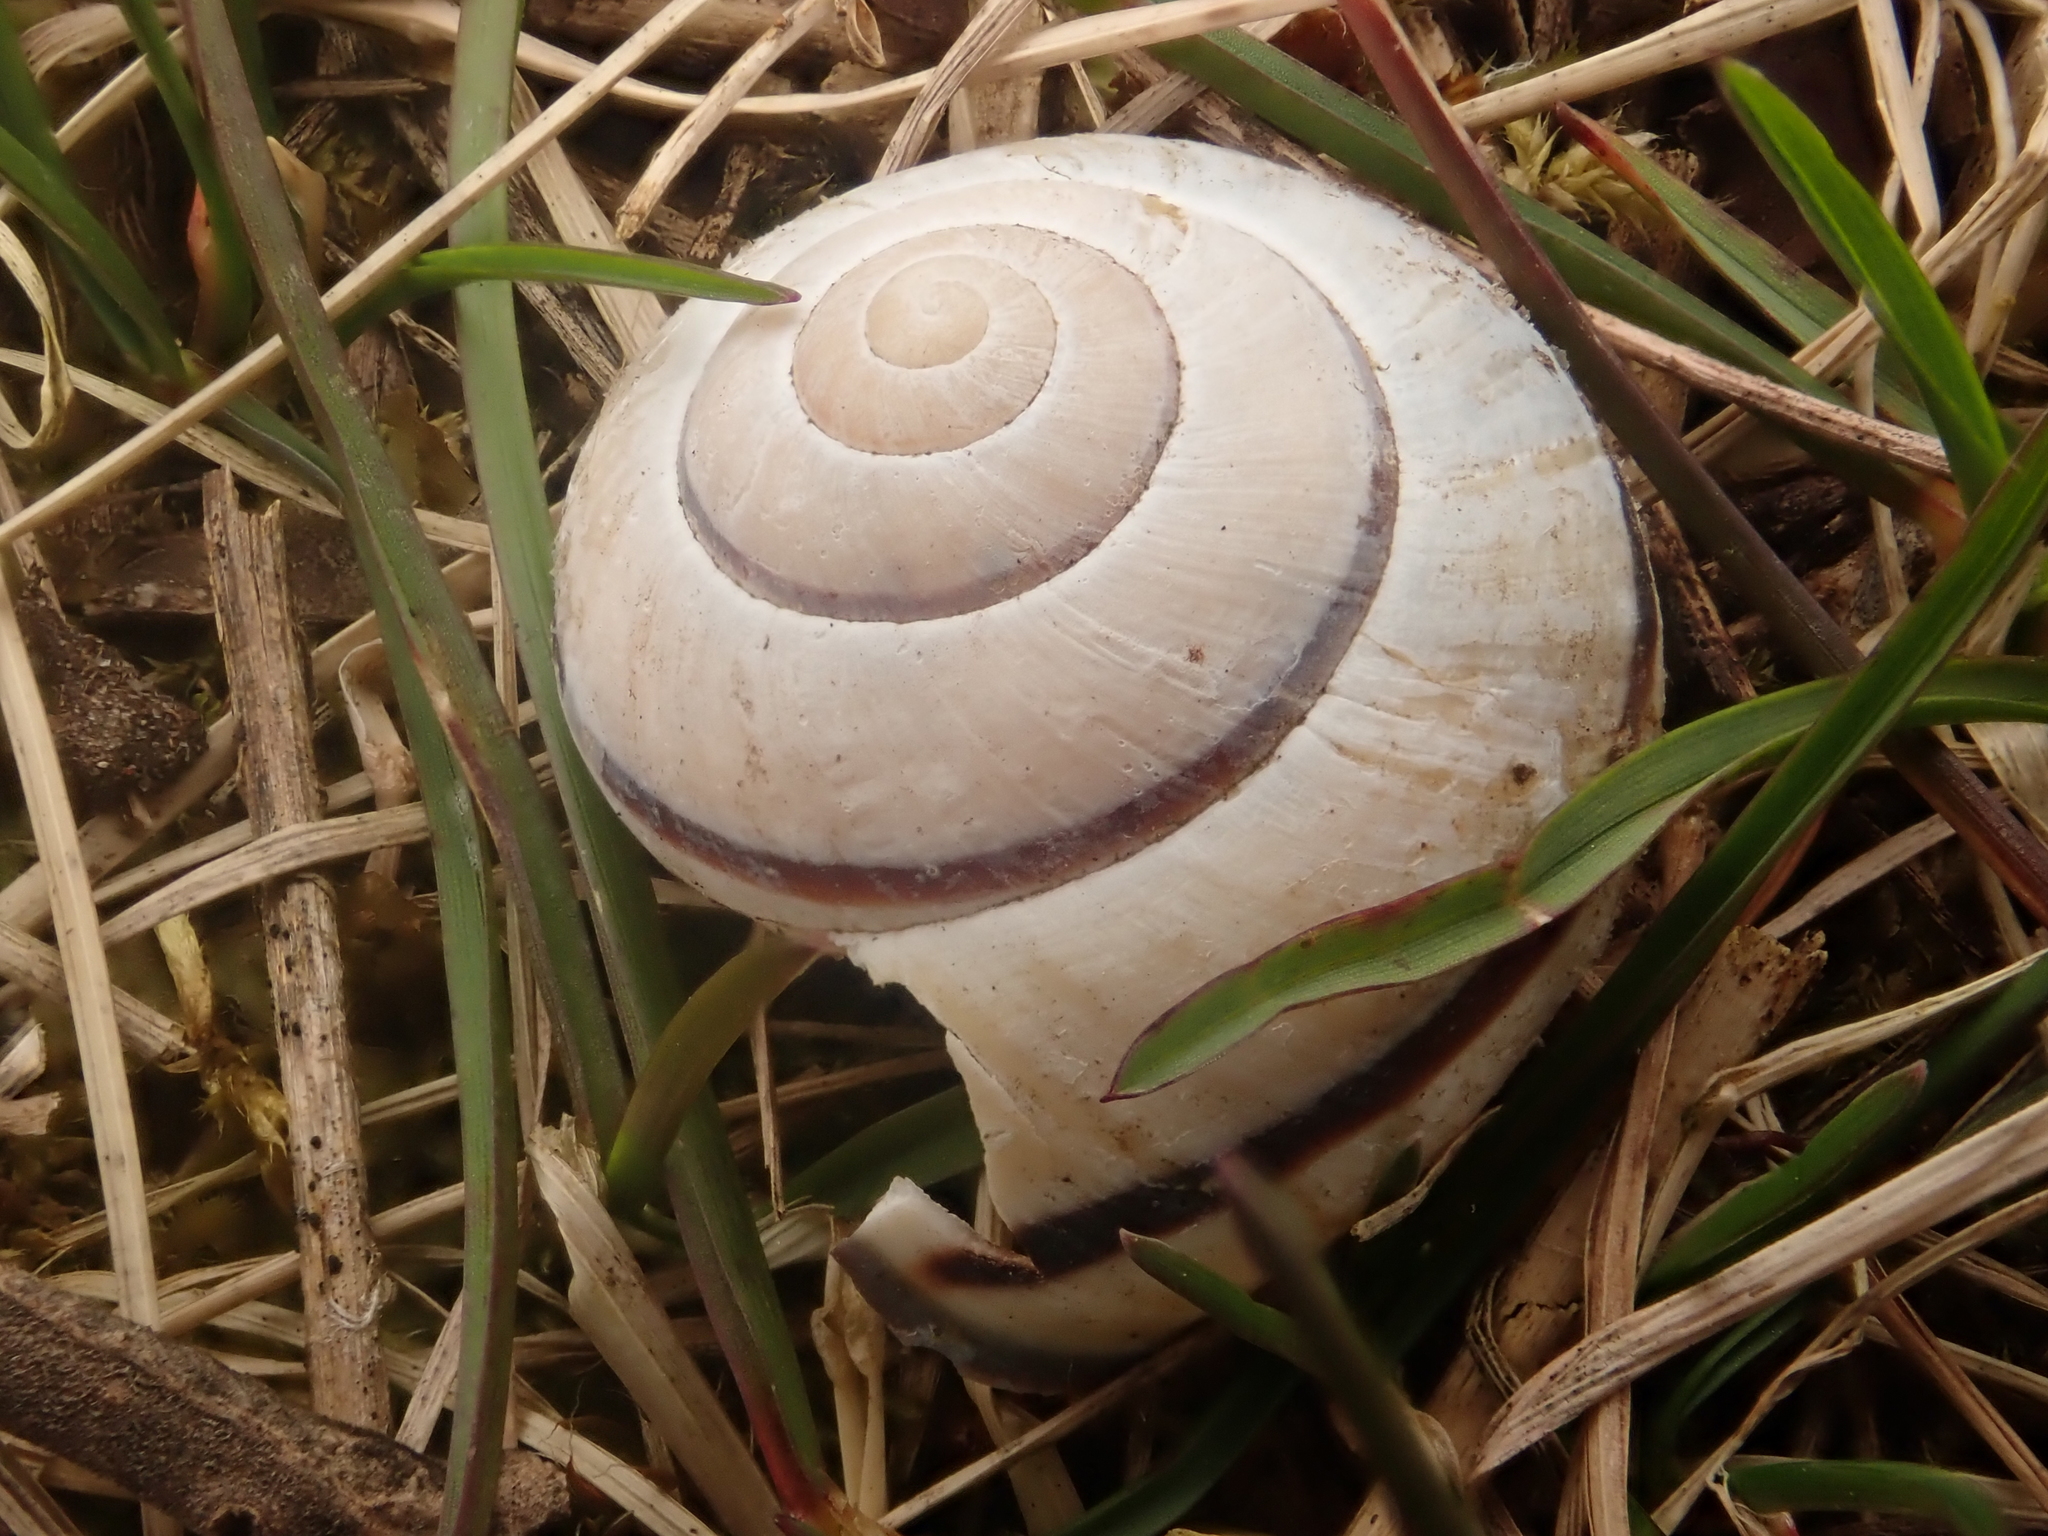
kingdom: Animalia
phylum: Mollusca
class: Gastropoda
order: Stylommatophora
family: Helicidae
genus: Cepaea
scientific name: Cepaea nemoralis
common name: Grovesnail
